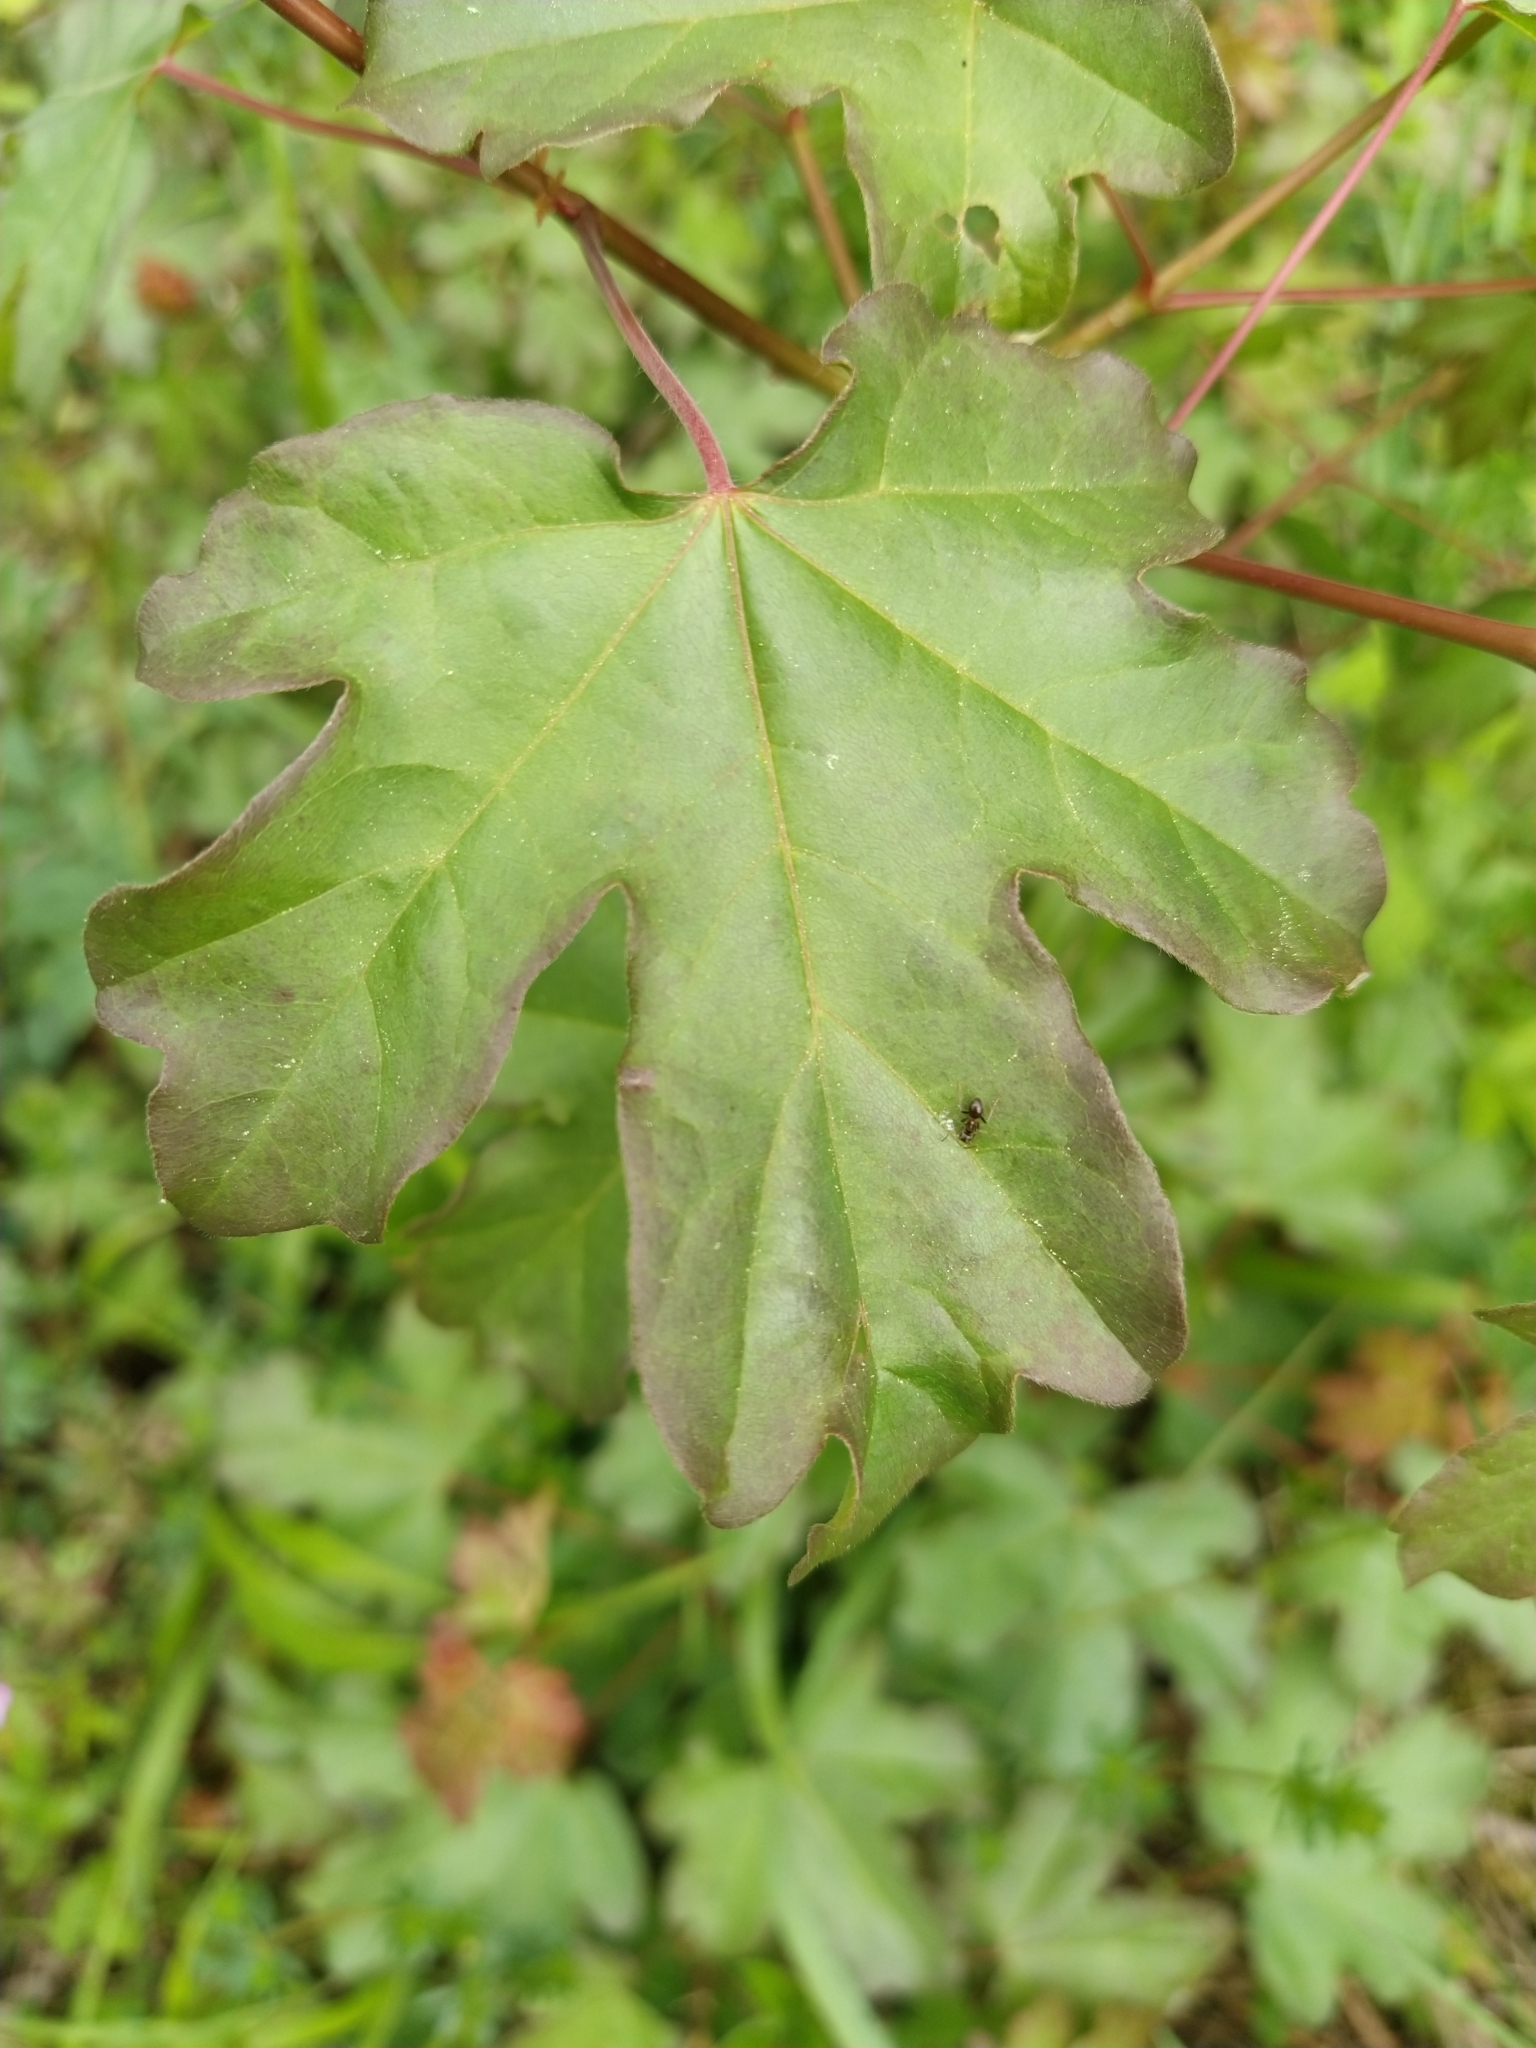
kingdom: Plantae
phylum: Tracheophyta
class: Magnoliopsida
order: Sapindales
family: Sapindaceae
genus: Acer
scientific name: Acer campestre
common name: Field maple
